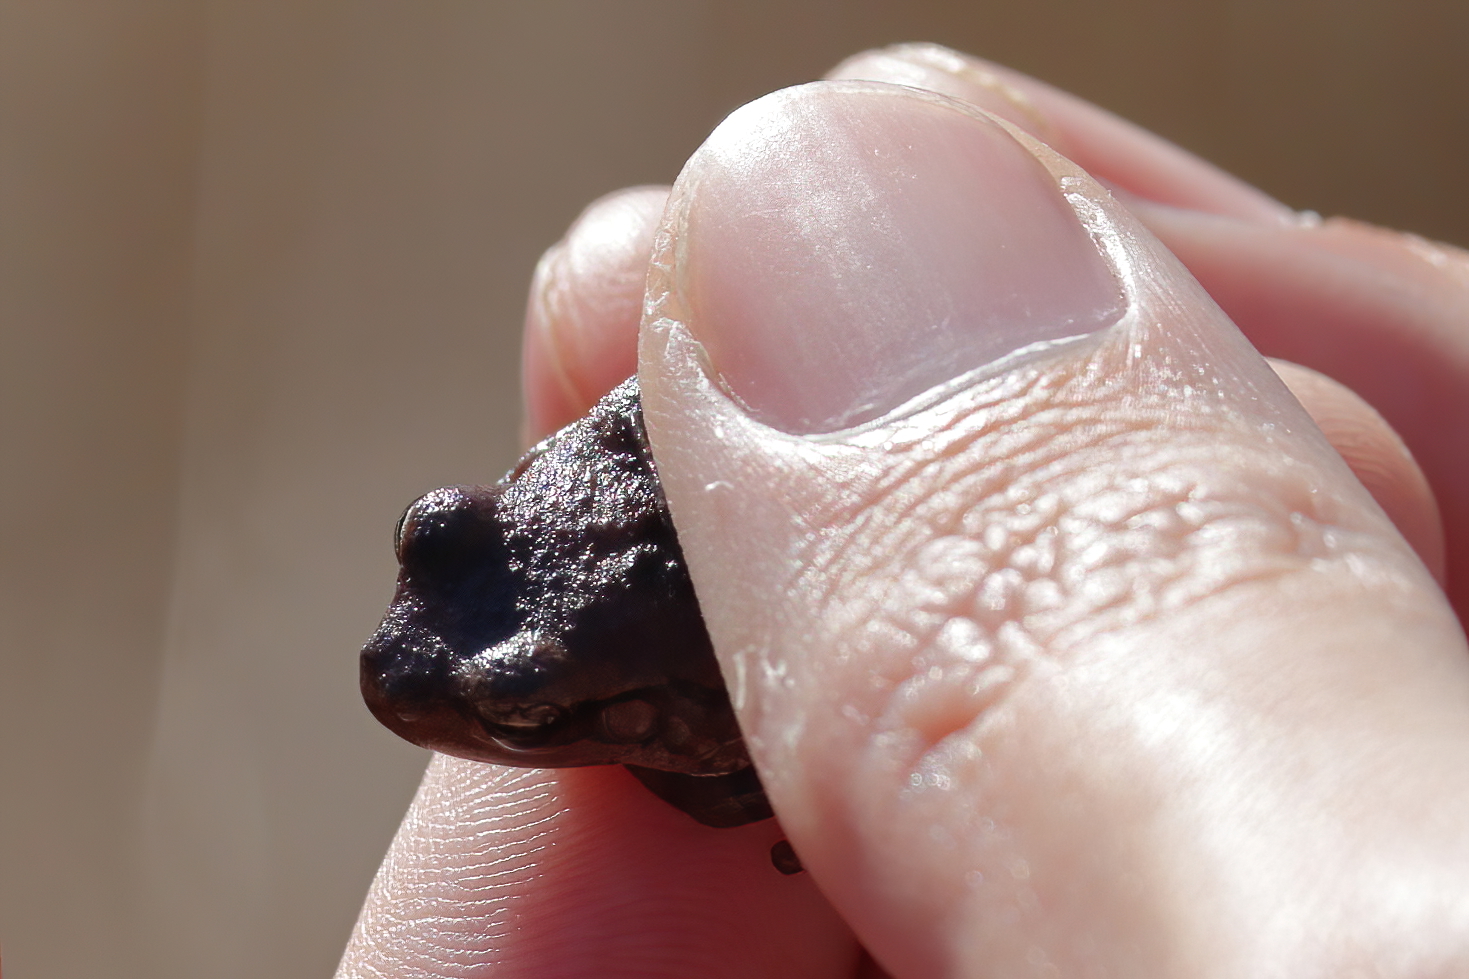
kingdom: Animalia
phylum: Chordata
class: Amphibia
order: Anura
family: Hylidae
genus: Hyla
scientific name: Hyla femoralis
